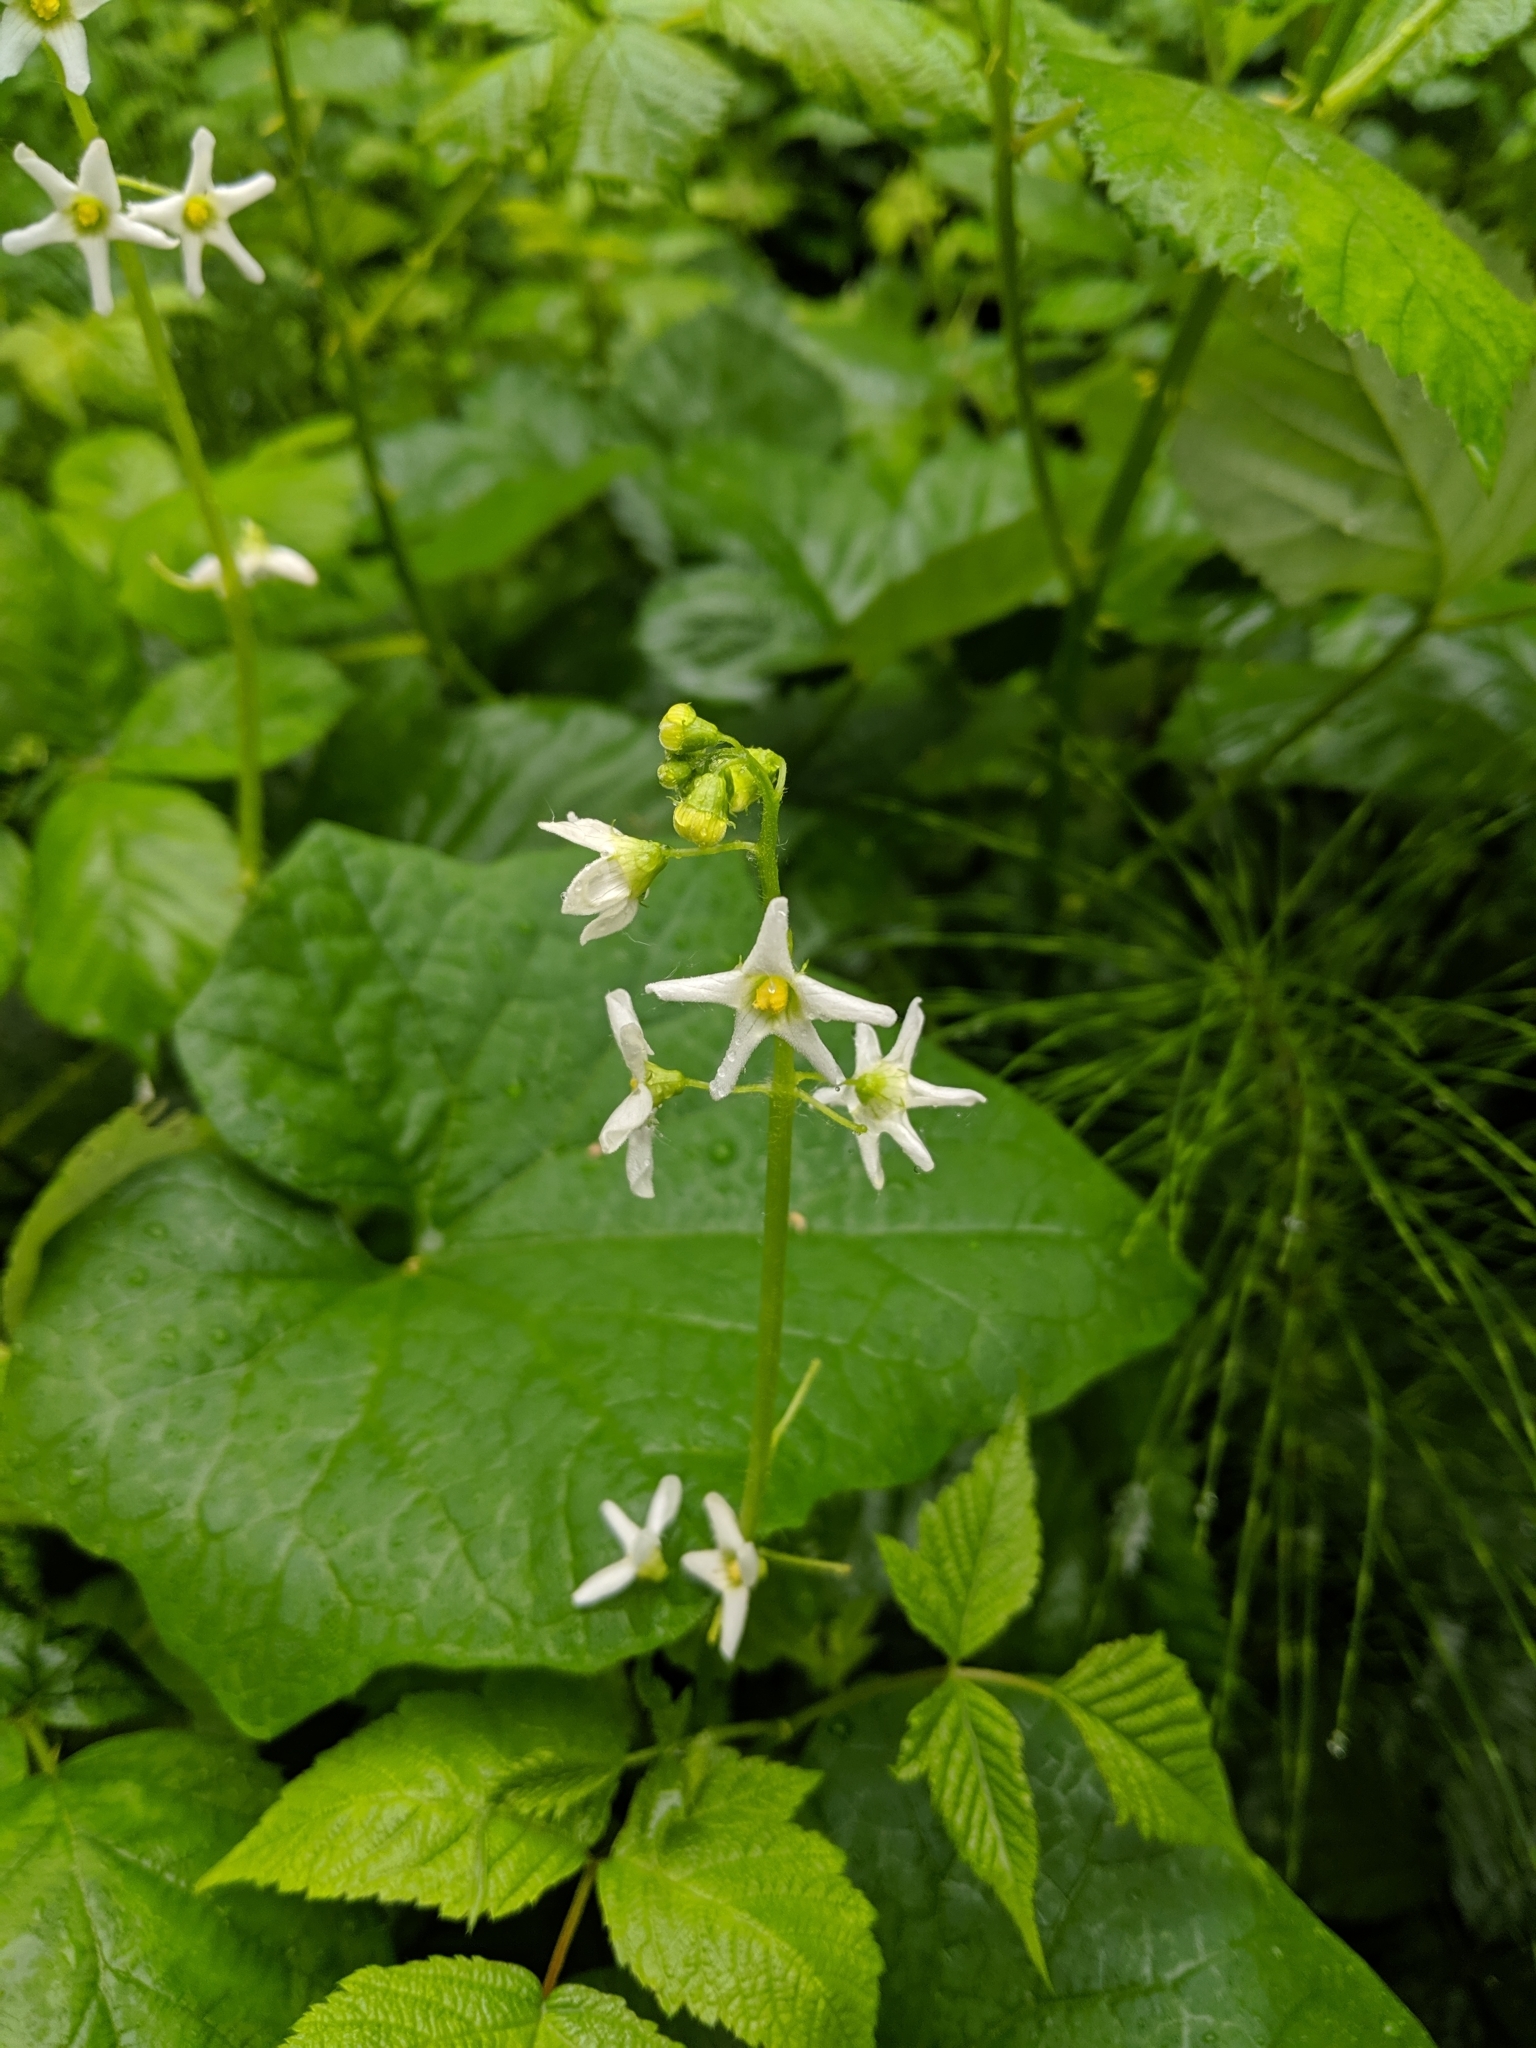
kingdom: Plantae
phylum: Tracheophyta
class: Magnoliopsida
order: Cucurbitales
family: Cucurbitaceae
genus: Marah
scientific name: Marah oregana
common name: Coastal manroot
